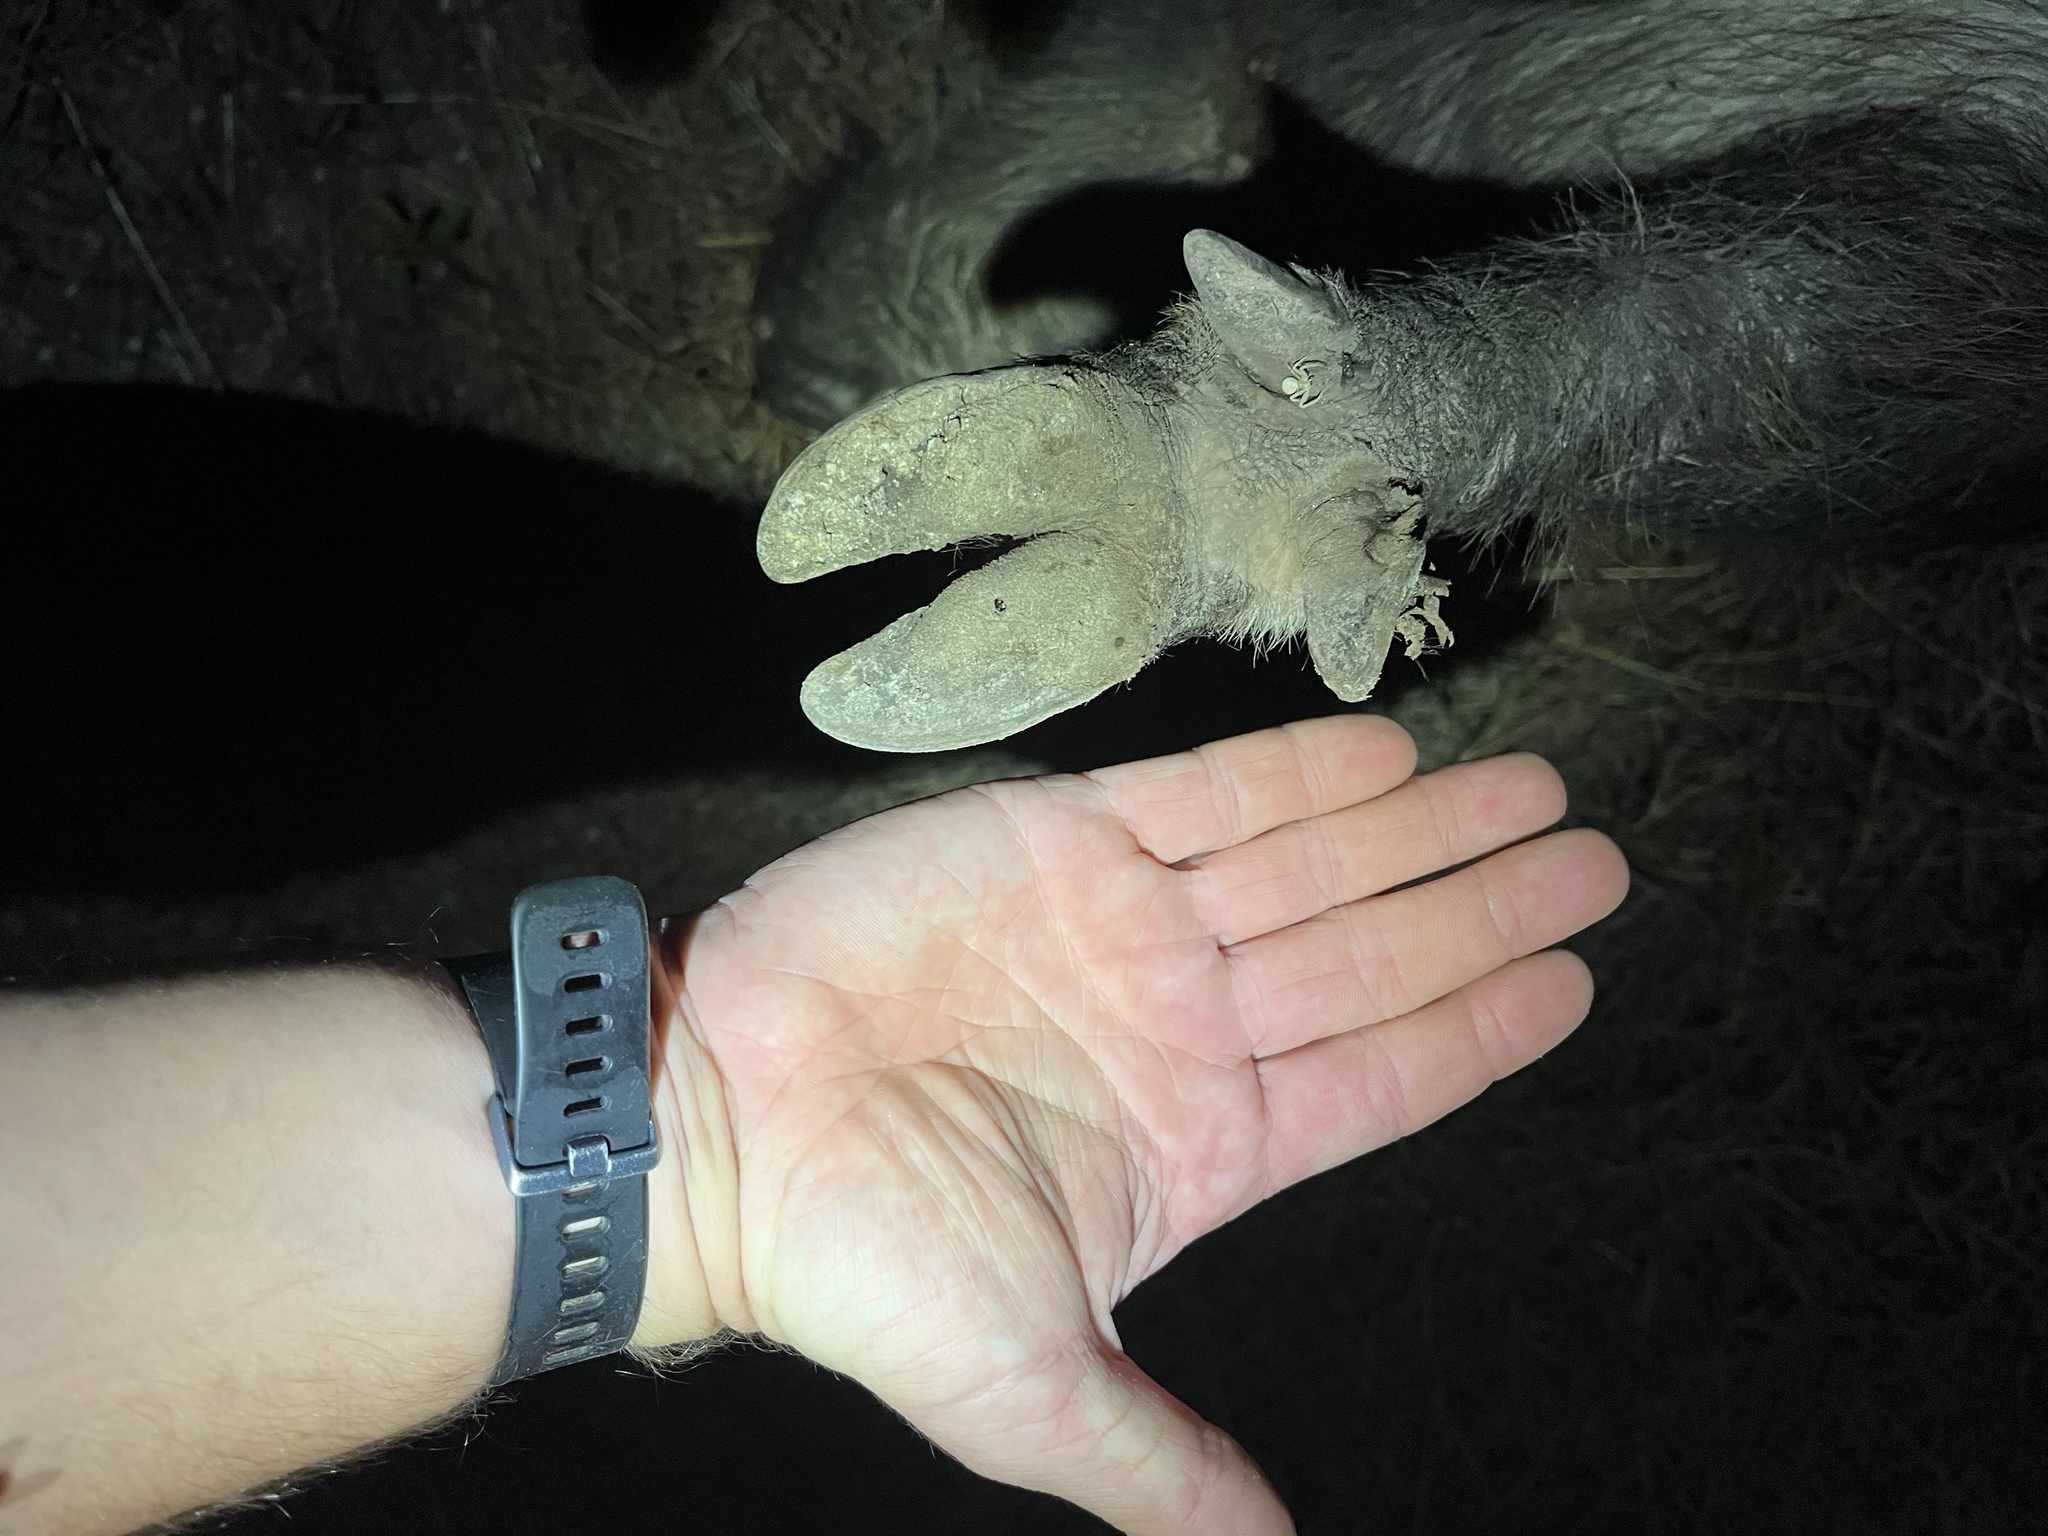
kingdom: Animalia
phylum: Chordata
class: Mammalia
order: Artiodactyla
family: Suidae
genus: Sus
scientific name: Sus scrofa
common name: Wild boar
